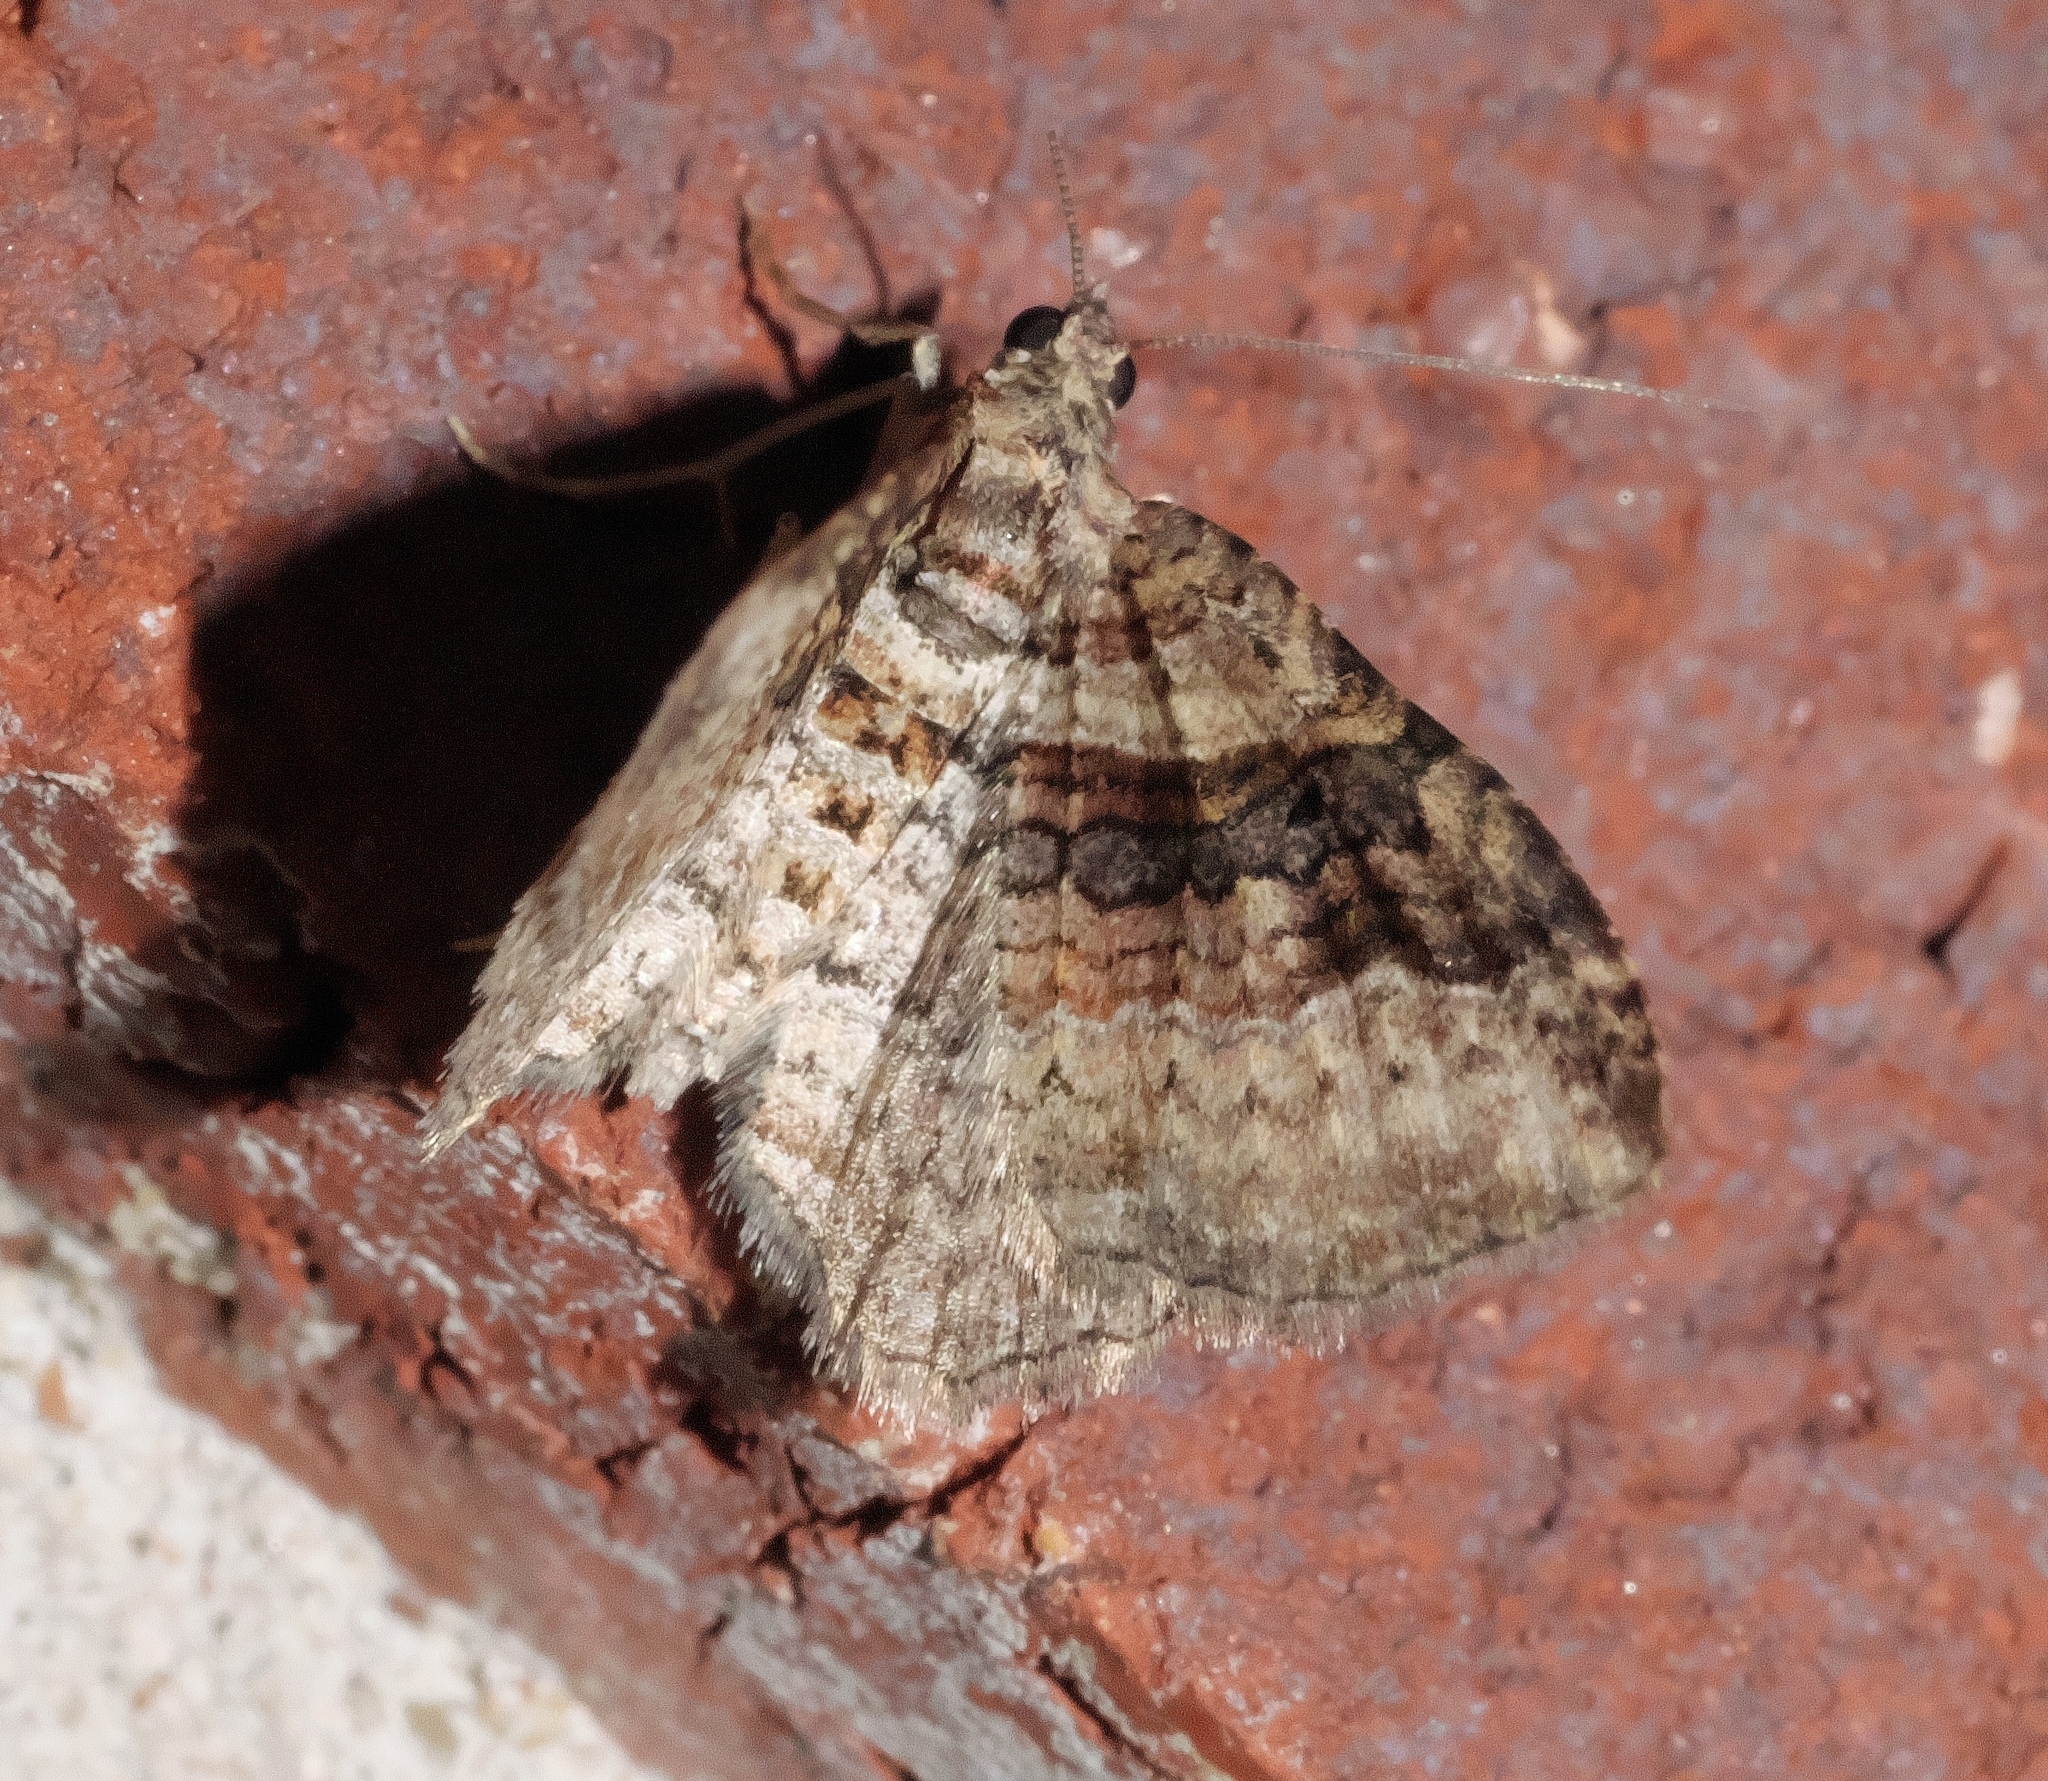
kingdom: Animalia
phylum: Arthropoda
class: Insecta
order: Lepidoptera
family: Geometridae
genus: Costaconvexa
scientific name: Costaconvexa centrostrigaria
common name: Bent-line carpet
